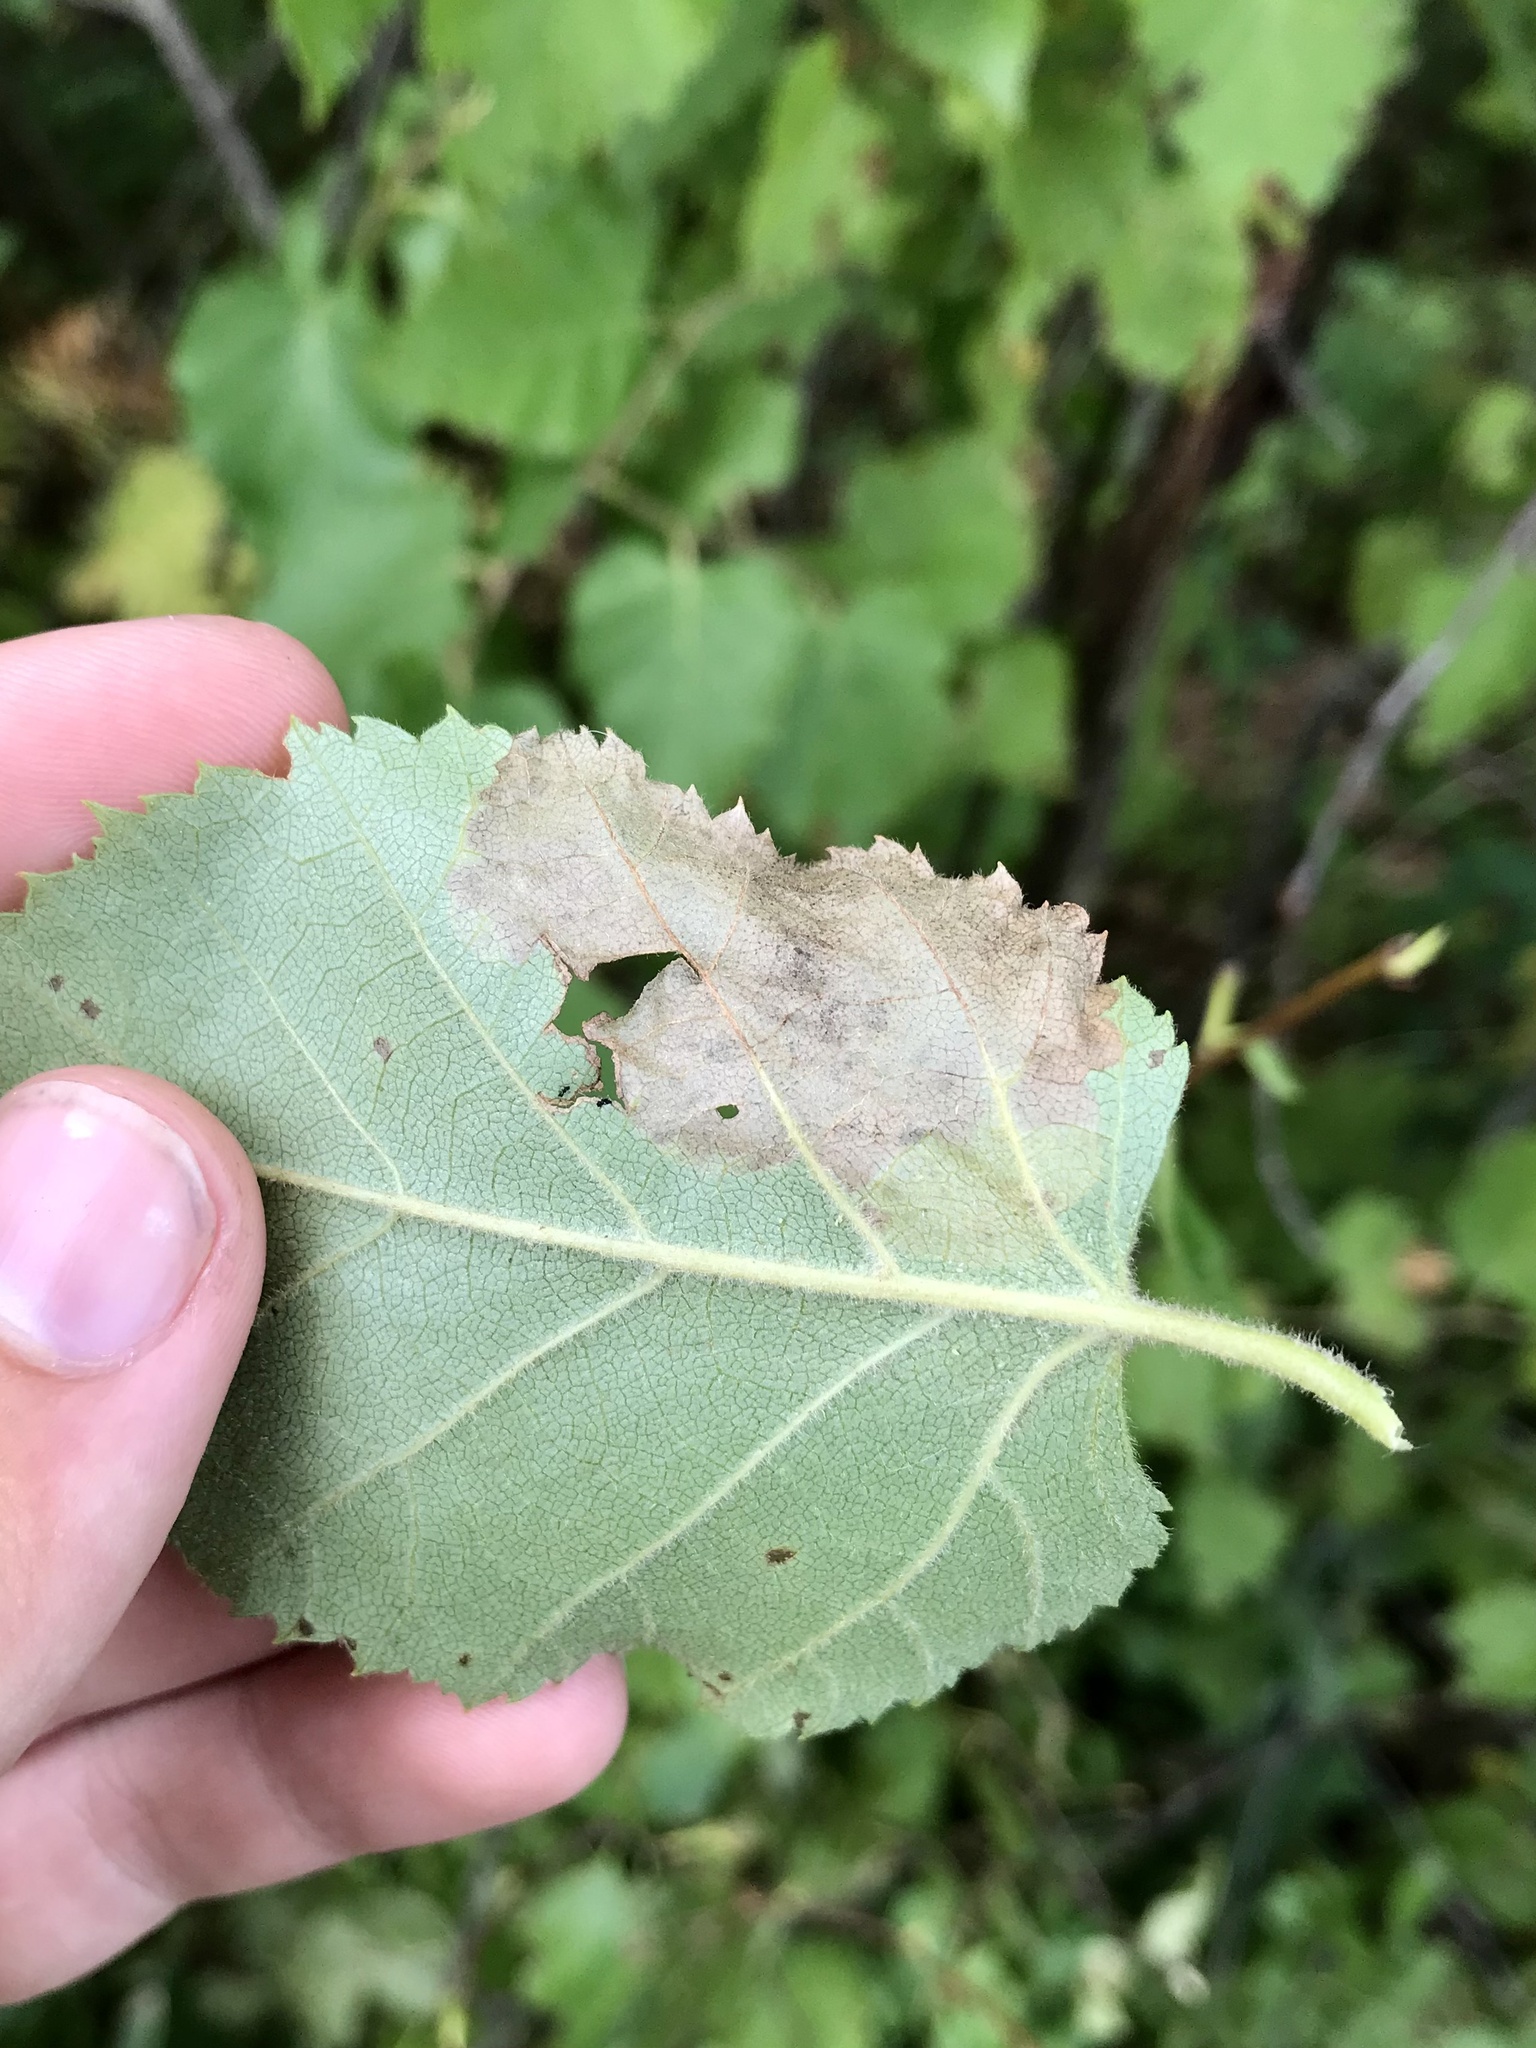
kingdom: Animalia
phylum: Arthropoda
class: Insecta
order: Hymenoptera
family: Tenthredinidae
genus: Profenusa
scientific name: Profenusa thomsoni
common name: Amber-marked birch leafminer
